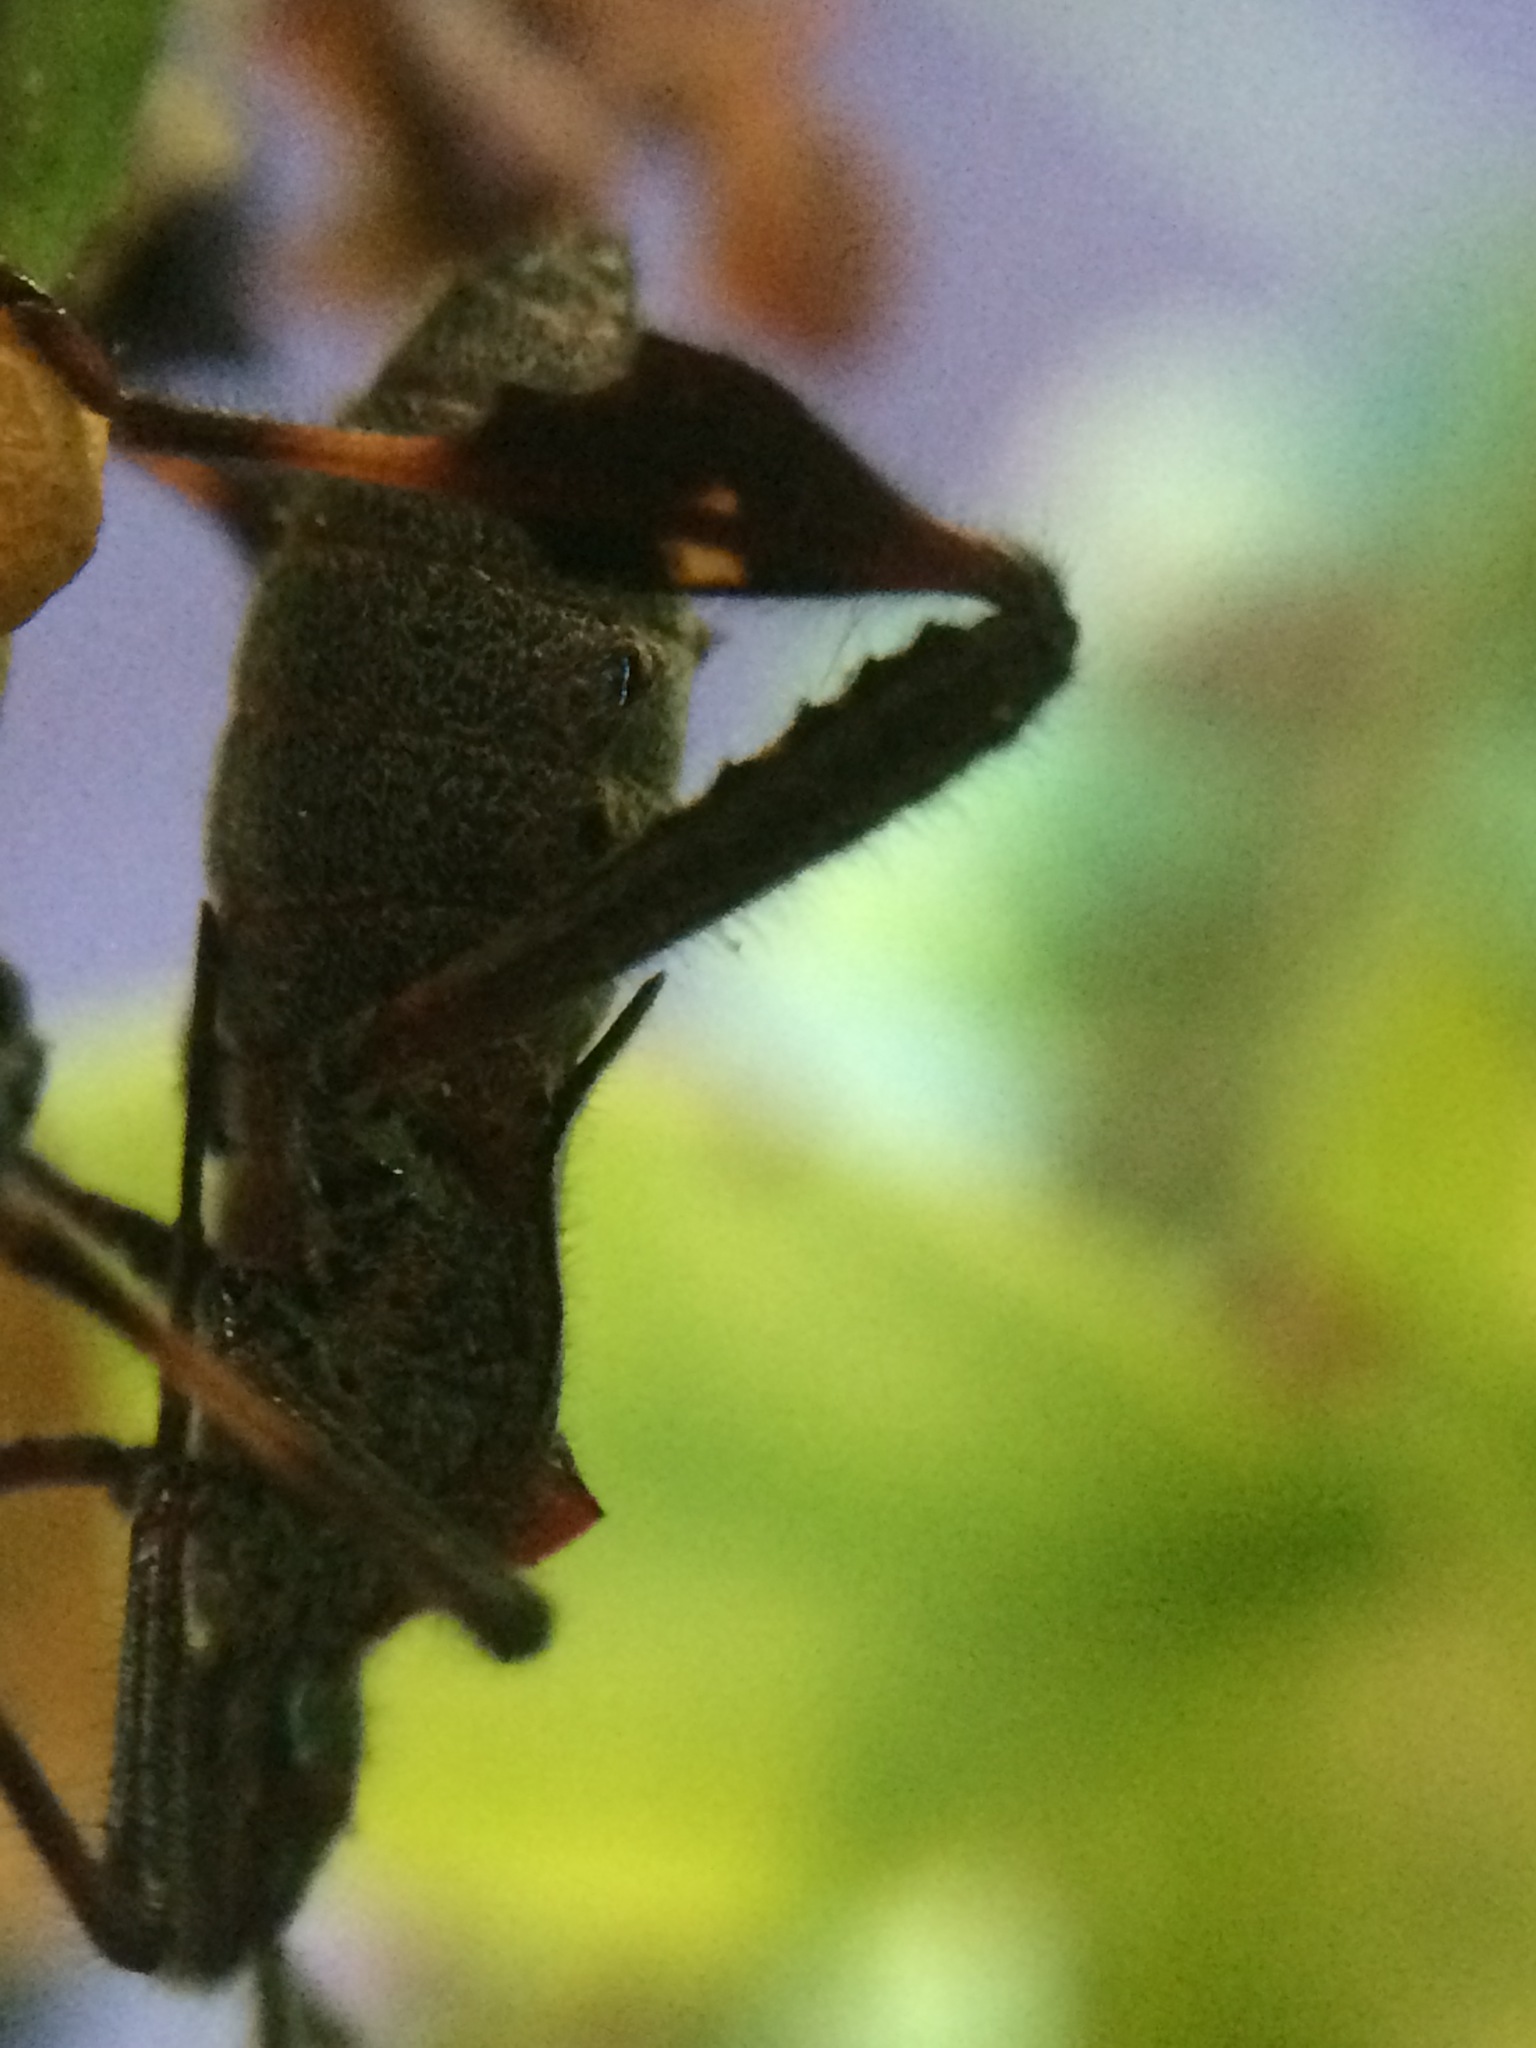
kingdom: Animalia
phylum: Arthropoda
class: Insecta
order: Hemiptera
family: Coreidae
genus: Leptoglossus
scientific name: Leptoglossus zonatus
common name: Large-legged bug
